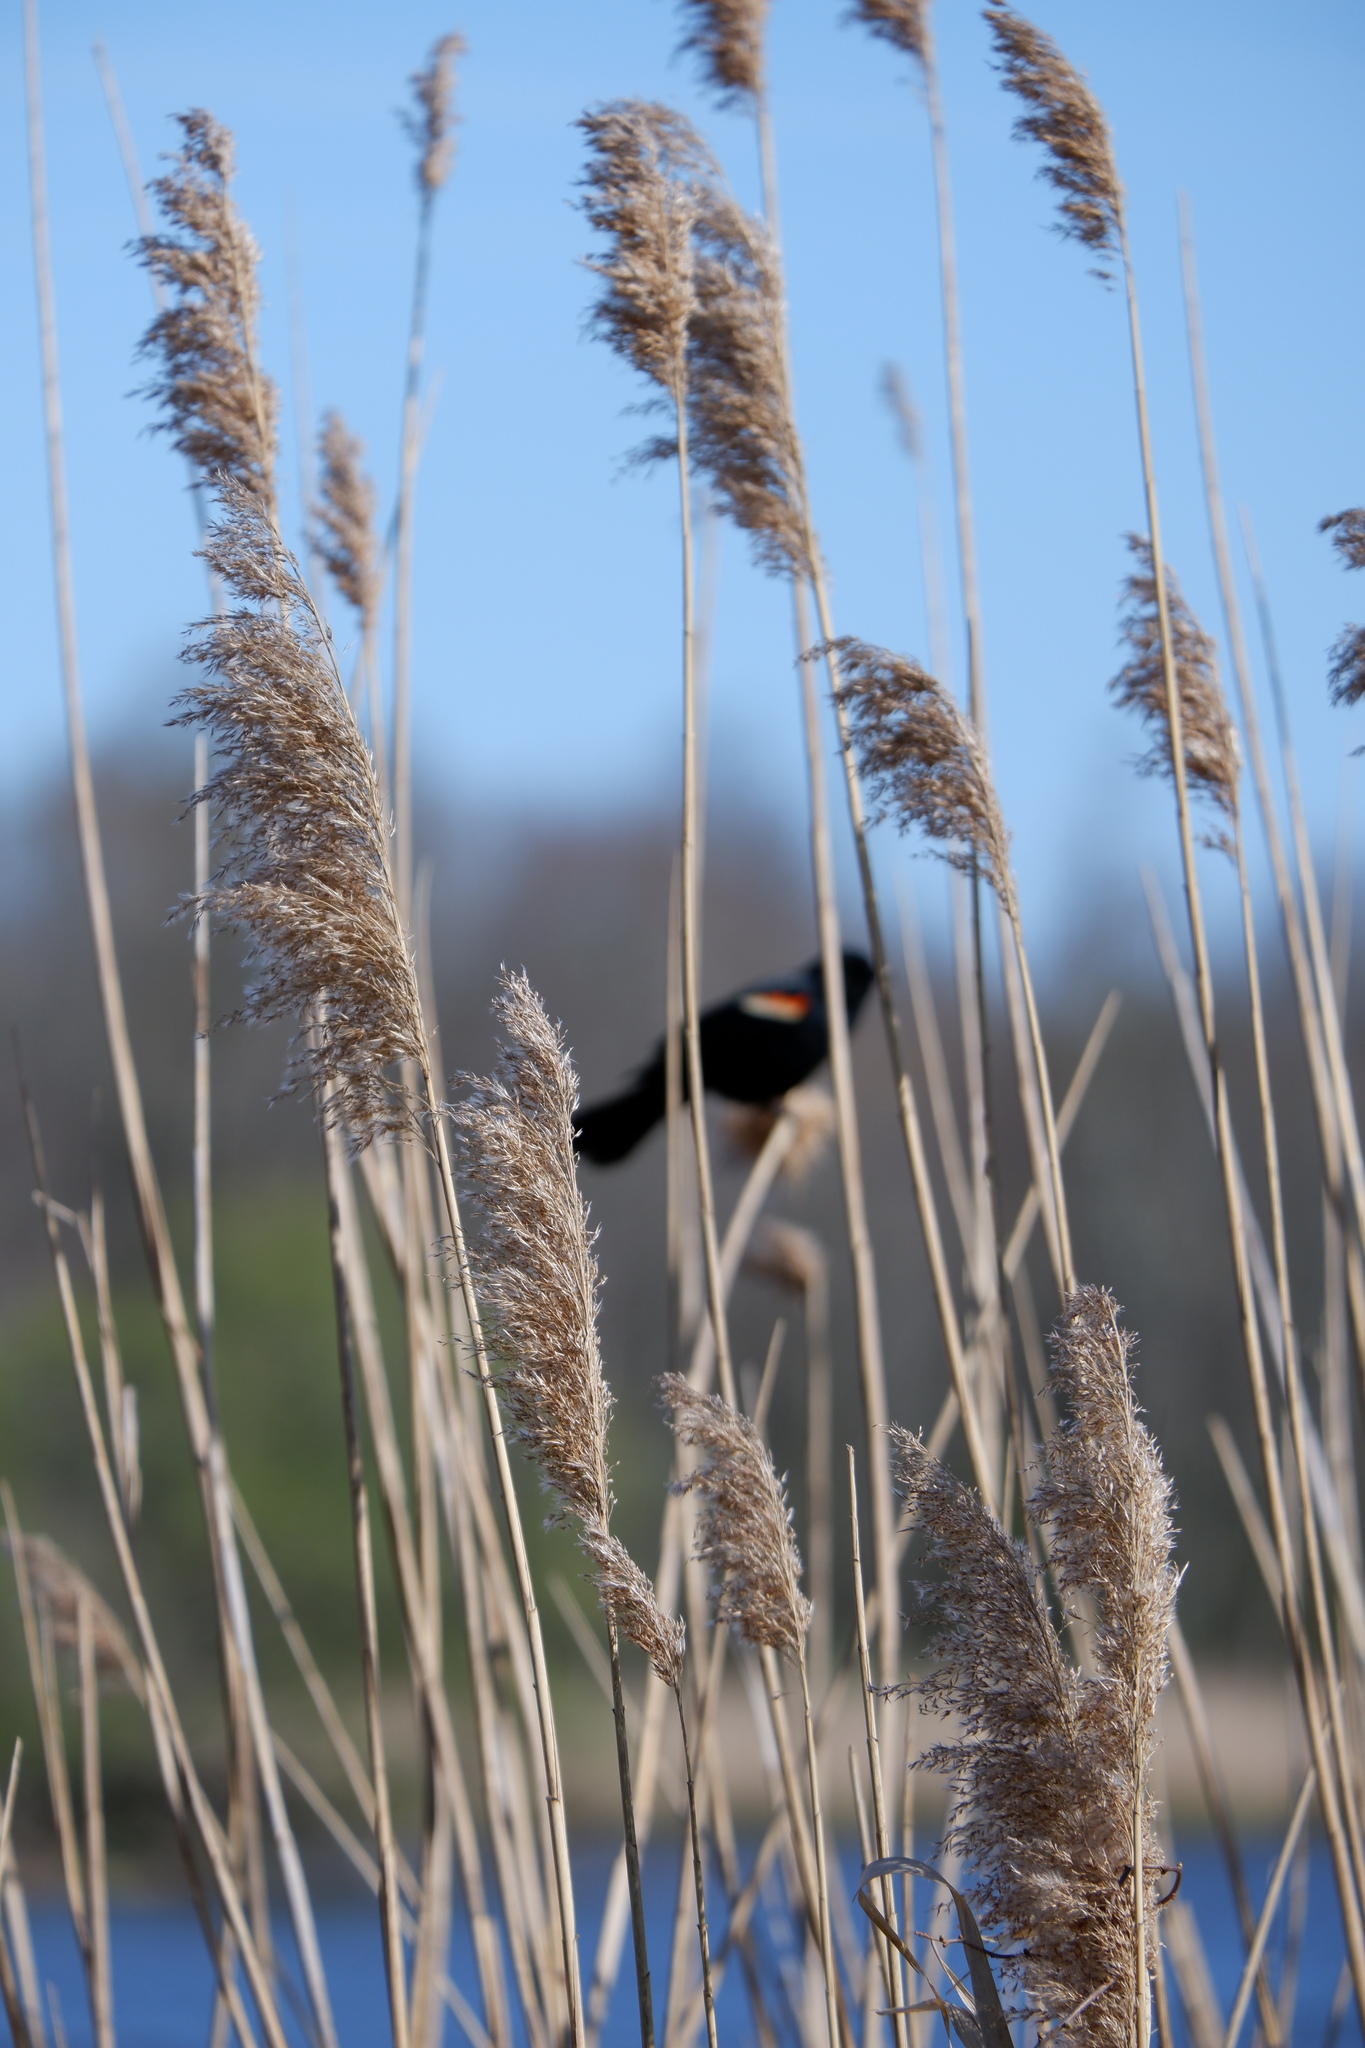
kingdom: Plantae
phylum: Tracheophyta
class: Liliopsida
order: Poales
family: Poaceae
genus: Phragmites
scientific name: Phragmites australis
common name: Common reed
